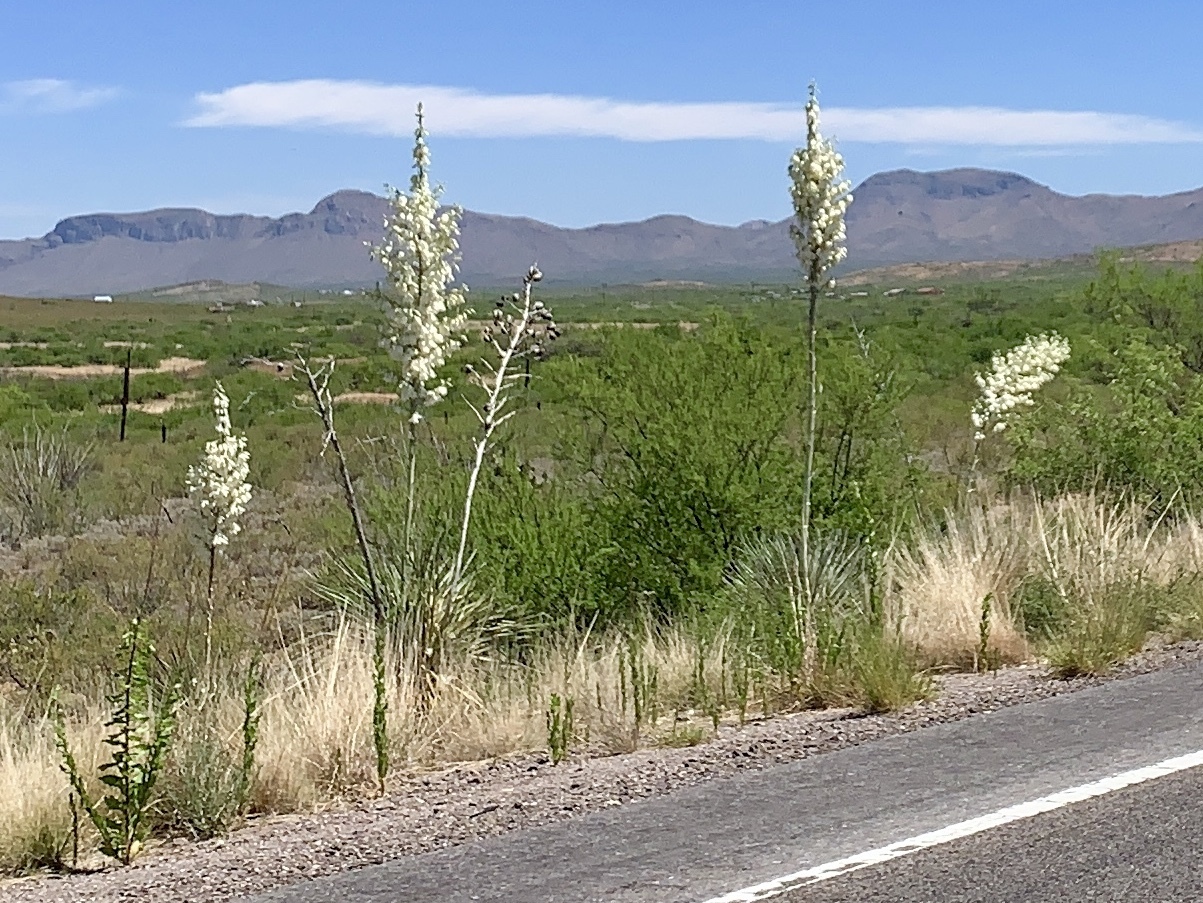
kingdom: Plantae
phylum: Tracheophyta
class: Liliopsida
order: Asparagales
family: Asparagaceae
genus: Yucca
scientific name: Yucca elata
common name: Palmella
